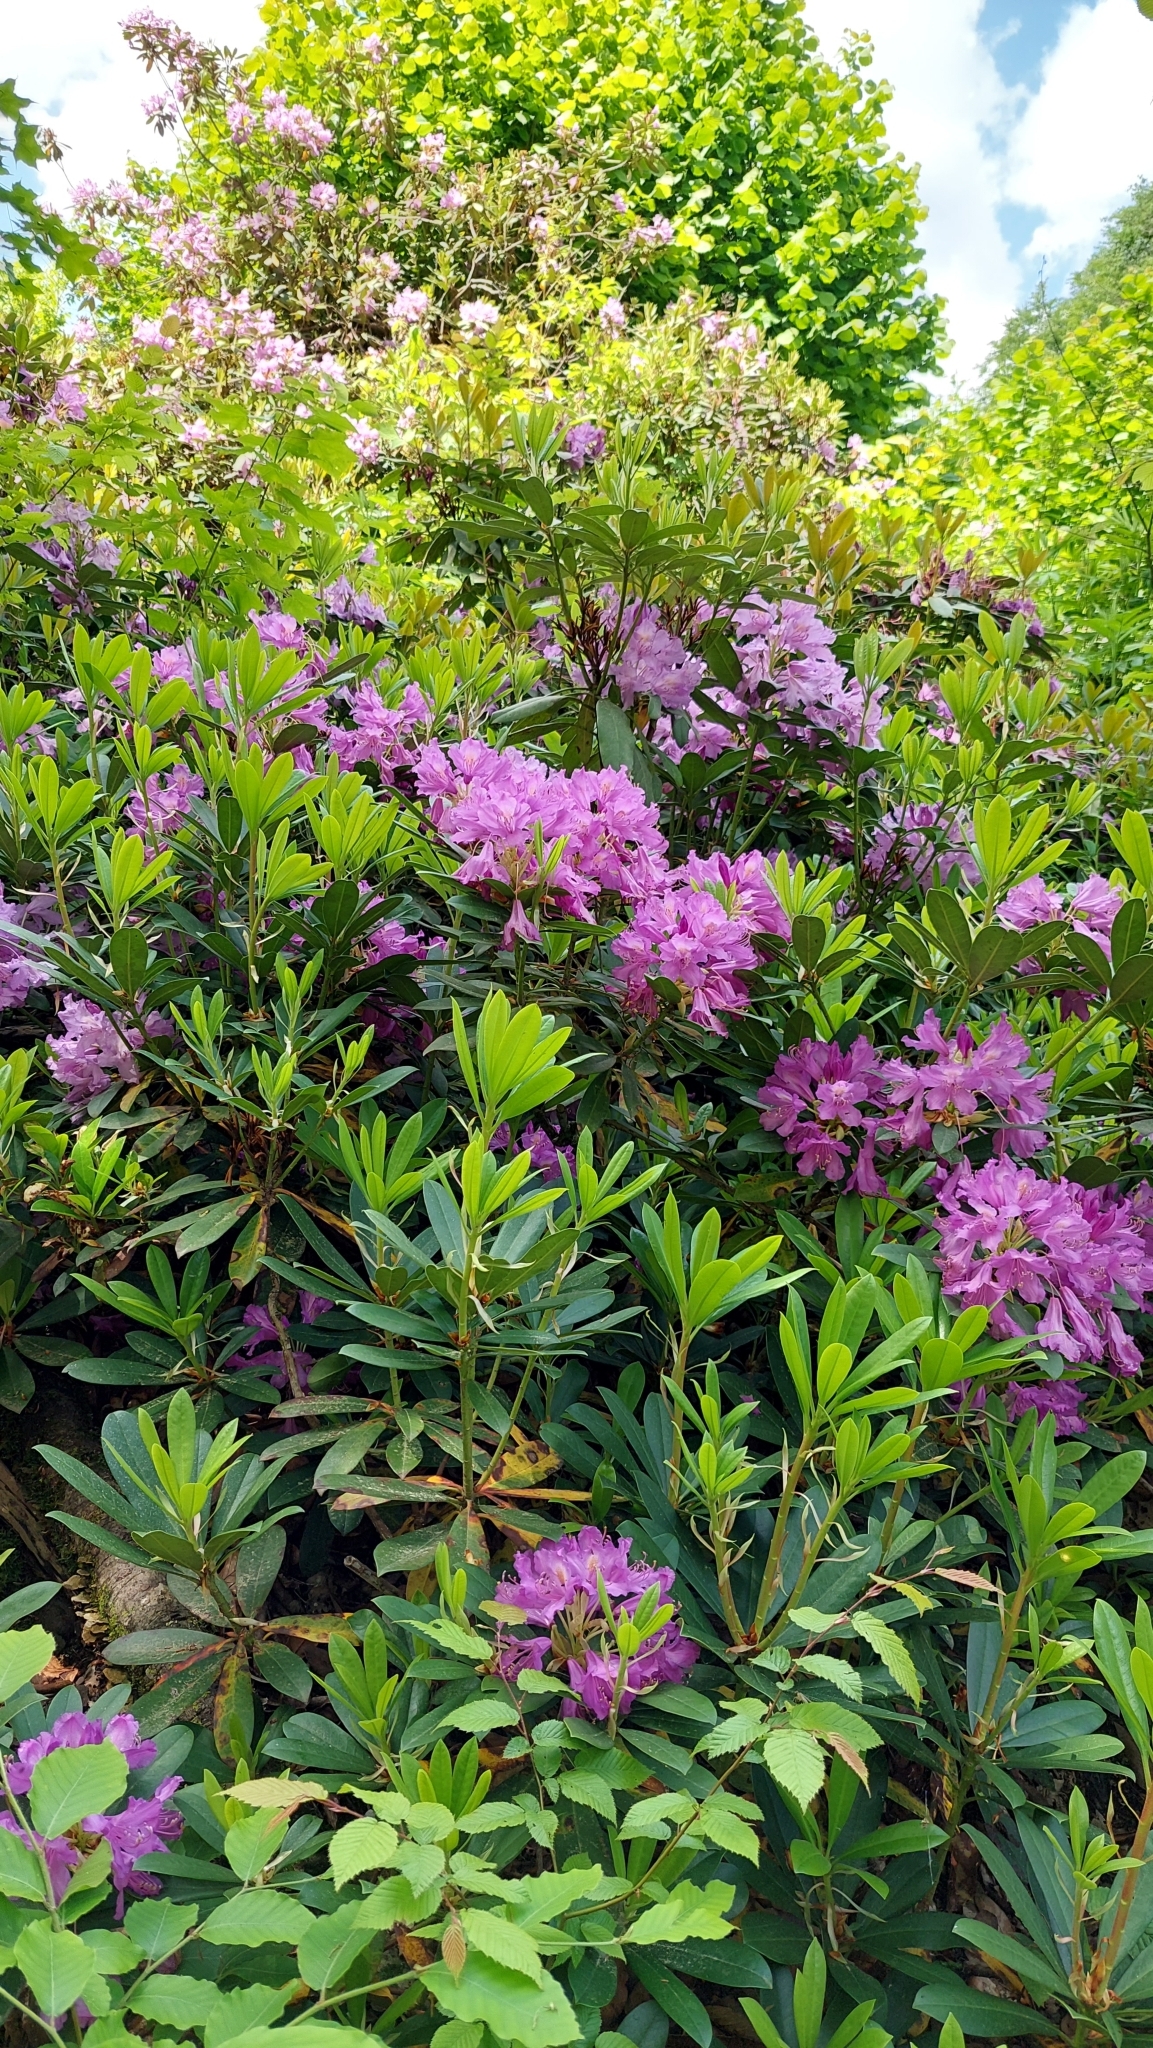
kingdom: Plantae
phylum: Tracheophyta
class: Magnoliopsida
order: Ericales
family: Ericaceae
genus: Rhododendron
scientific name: Rhododendron ponticum
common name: Rhododendron
